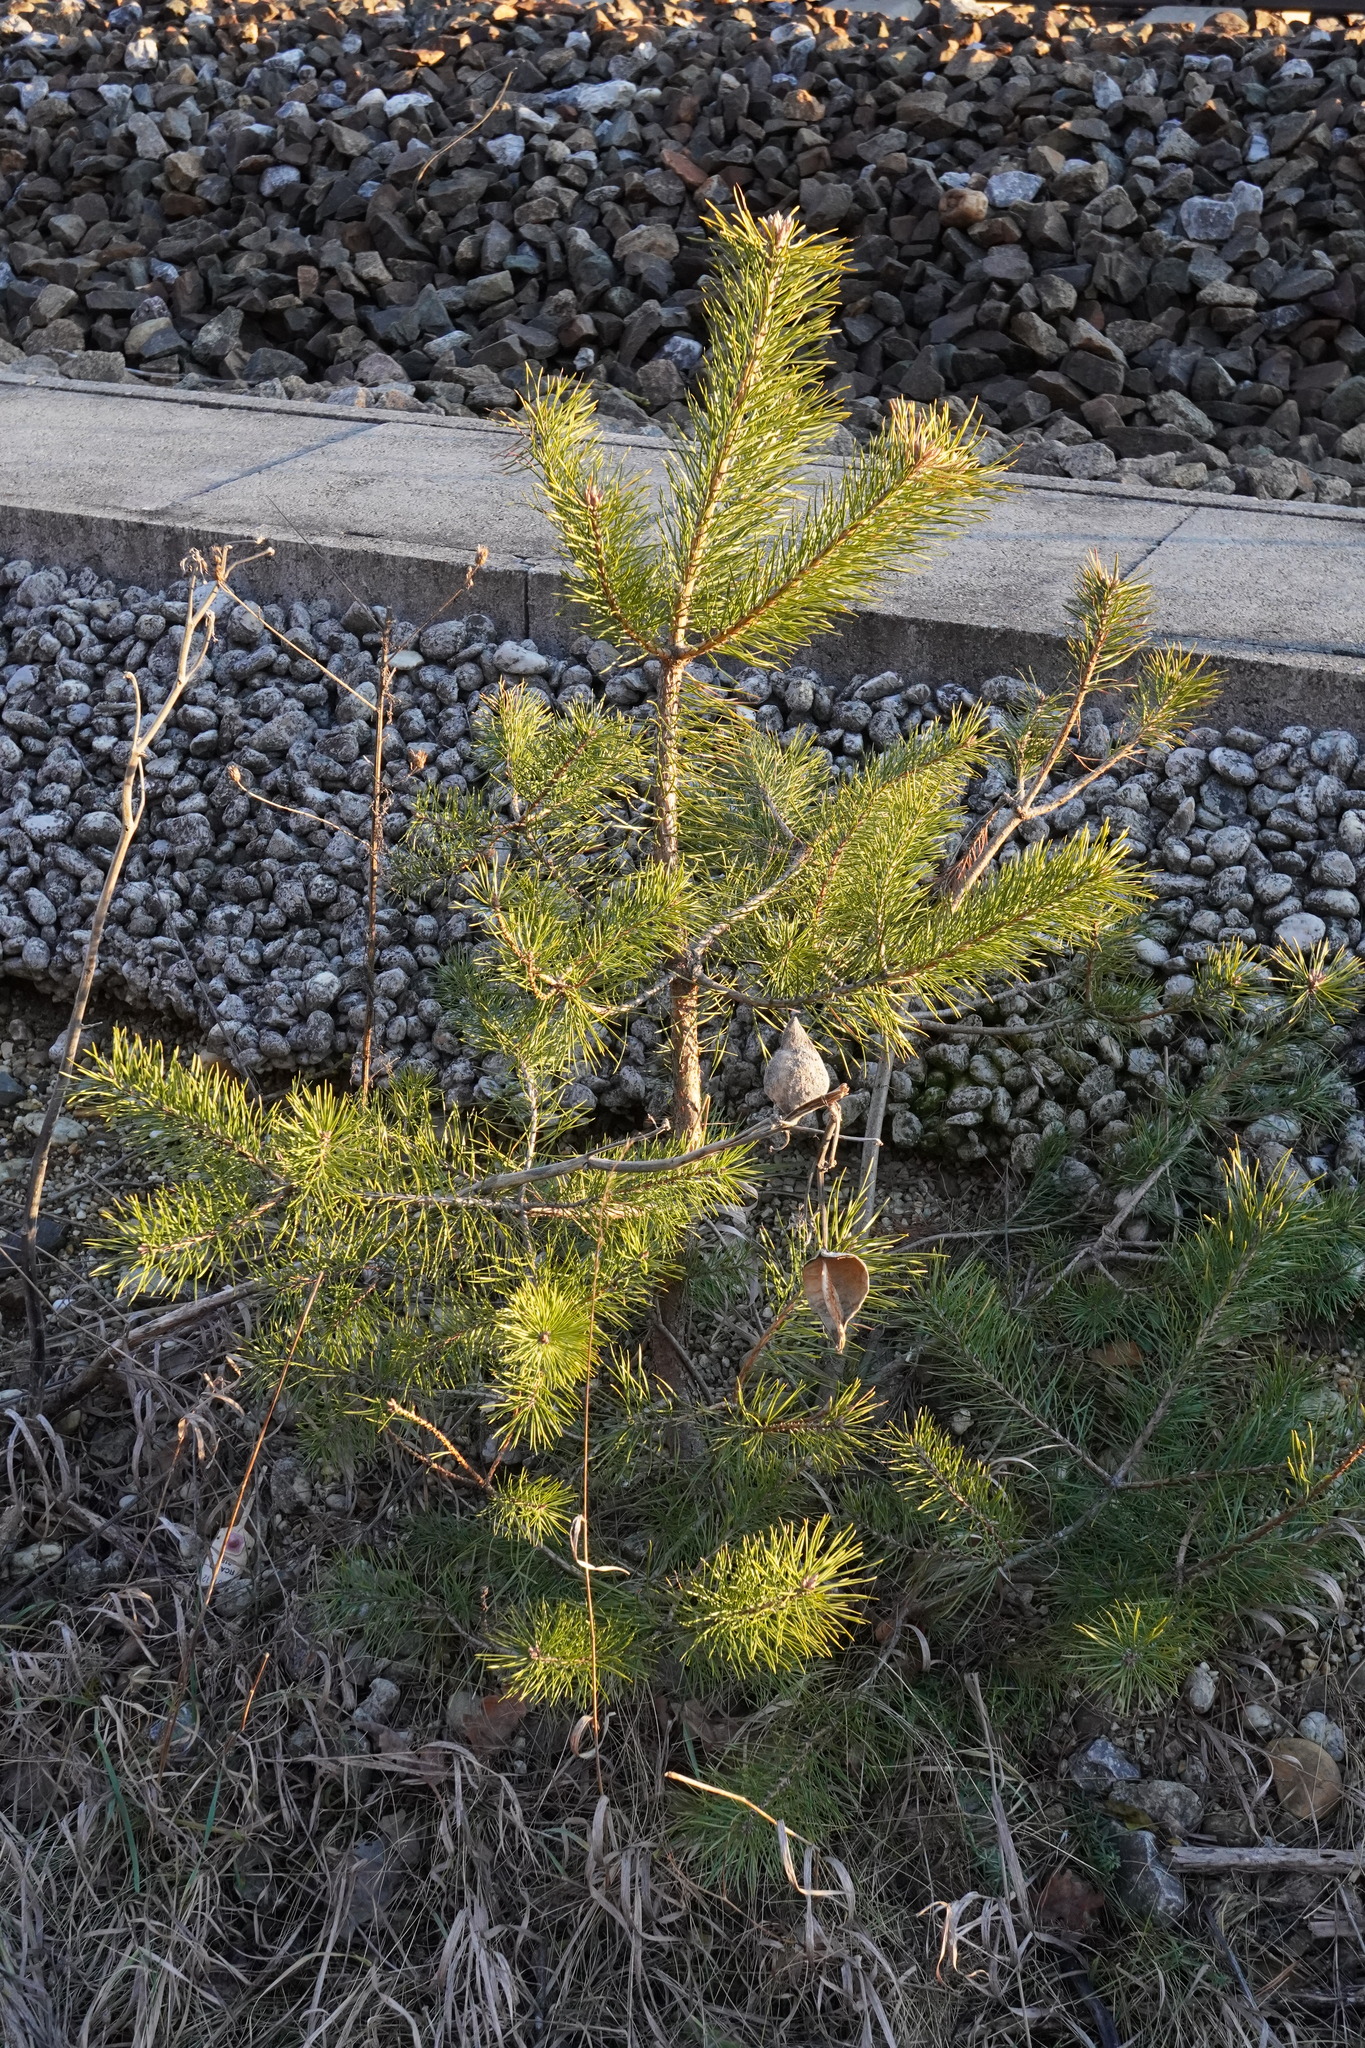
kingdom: Plantae
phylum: Tracheophyta
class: Pinopsida
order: Pinales
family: Pinaceae
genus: Pinus
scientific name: Pinus sylvestris
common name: Scots pine
